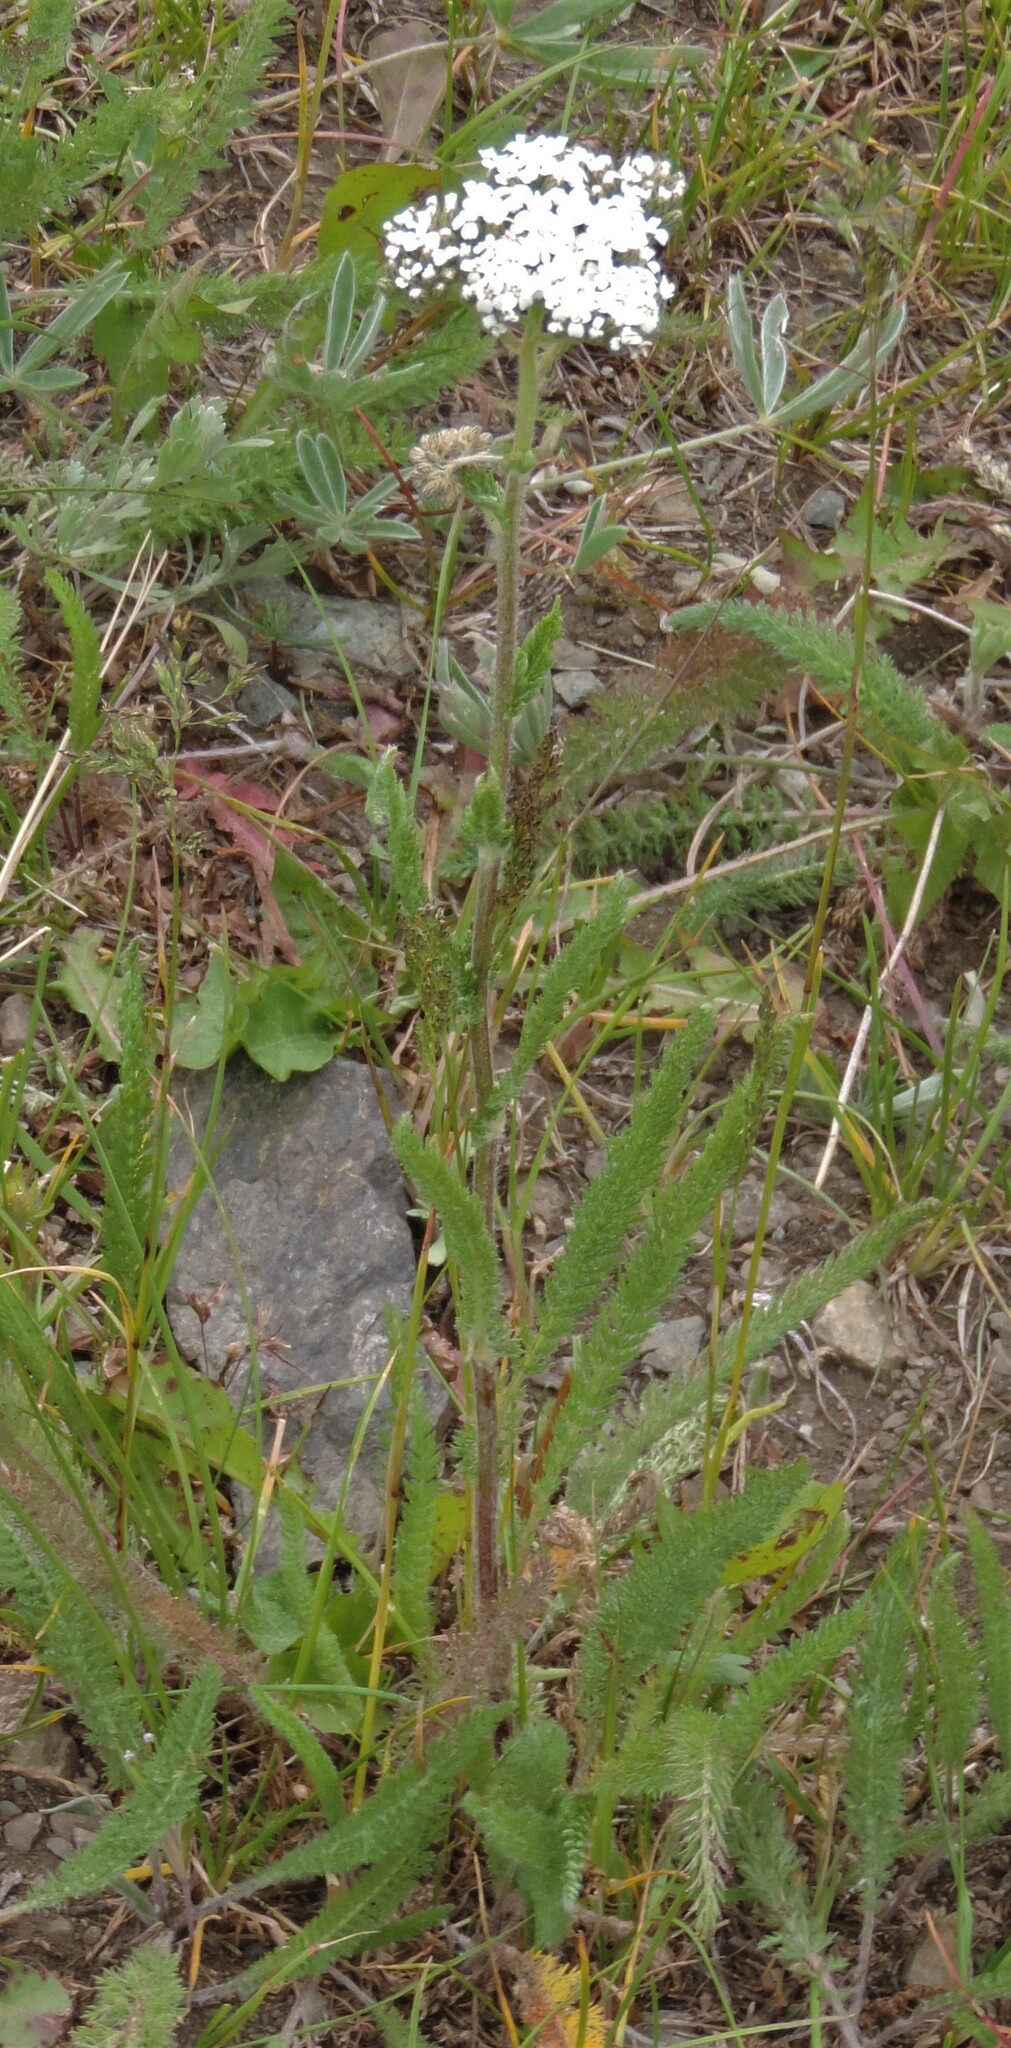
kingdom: Plantae
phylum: Tracheophyta
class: Magnoliopsida
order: Asterales
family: Asteraceae
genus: Achillea
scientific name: Achillea millefolium
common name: Yarrow
